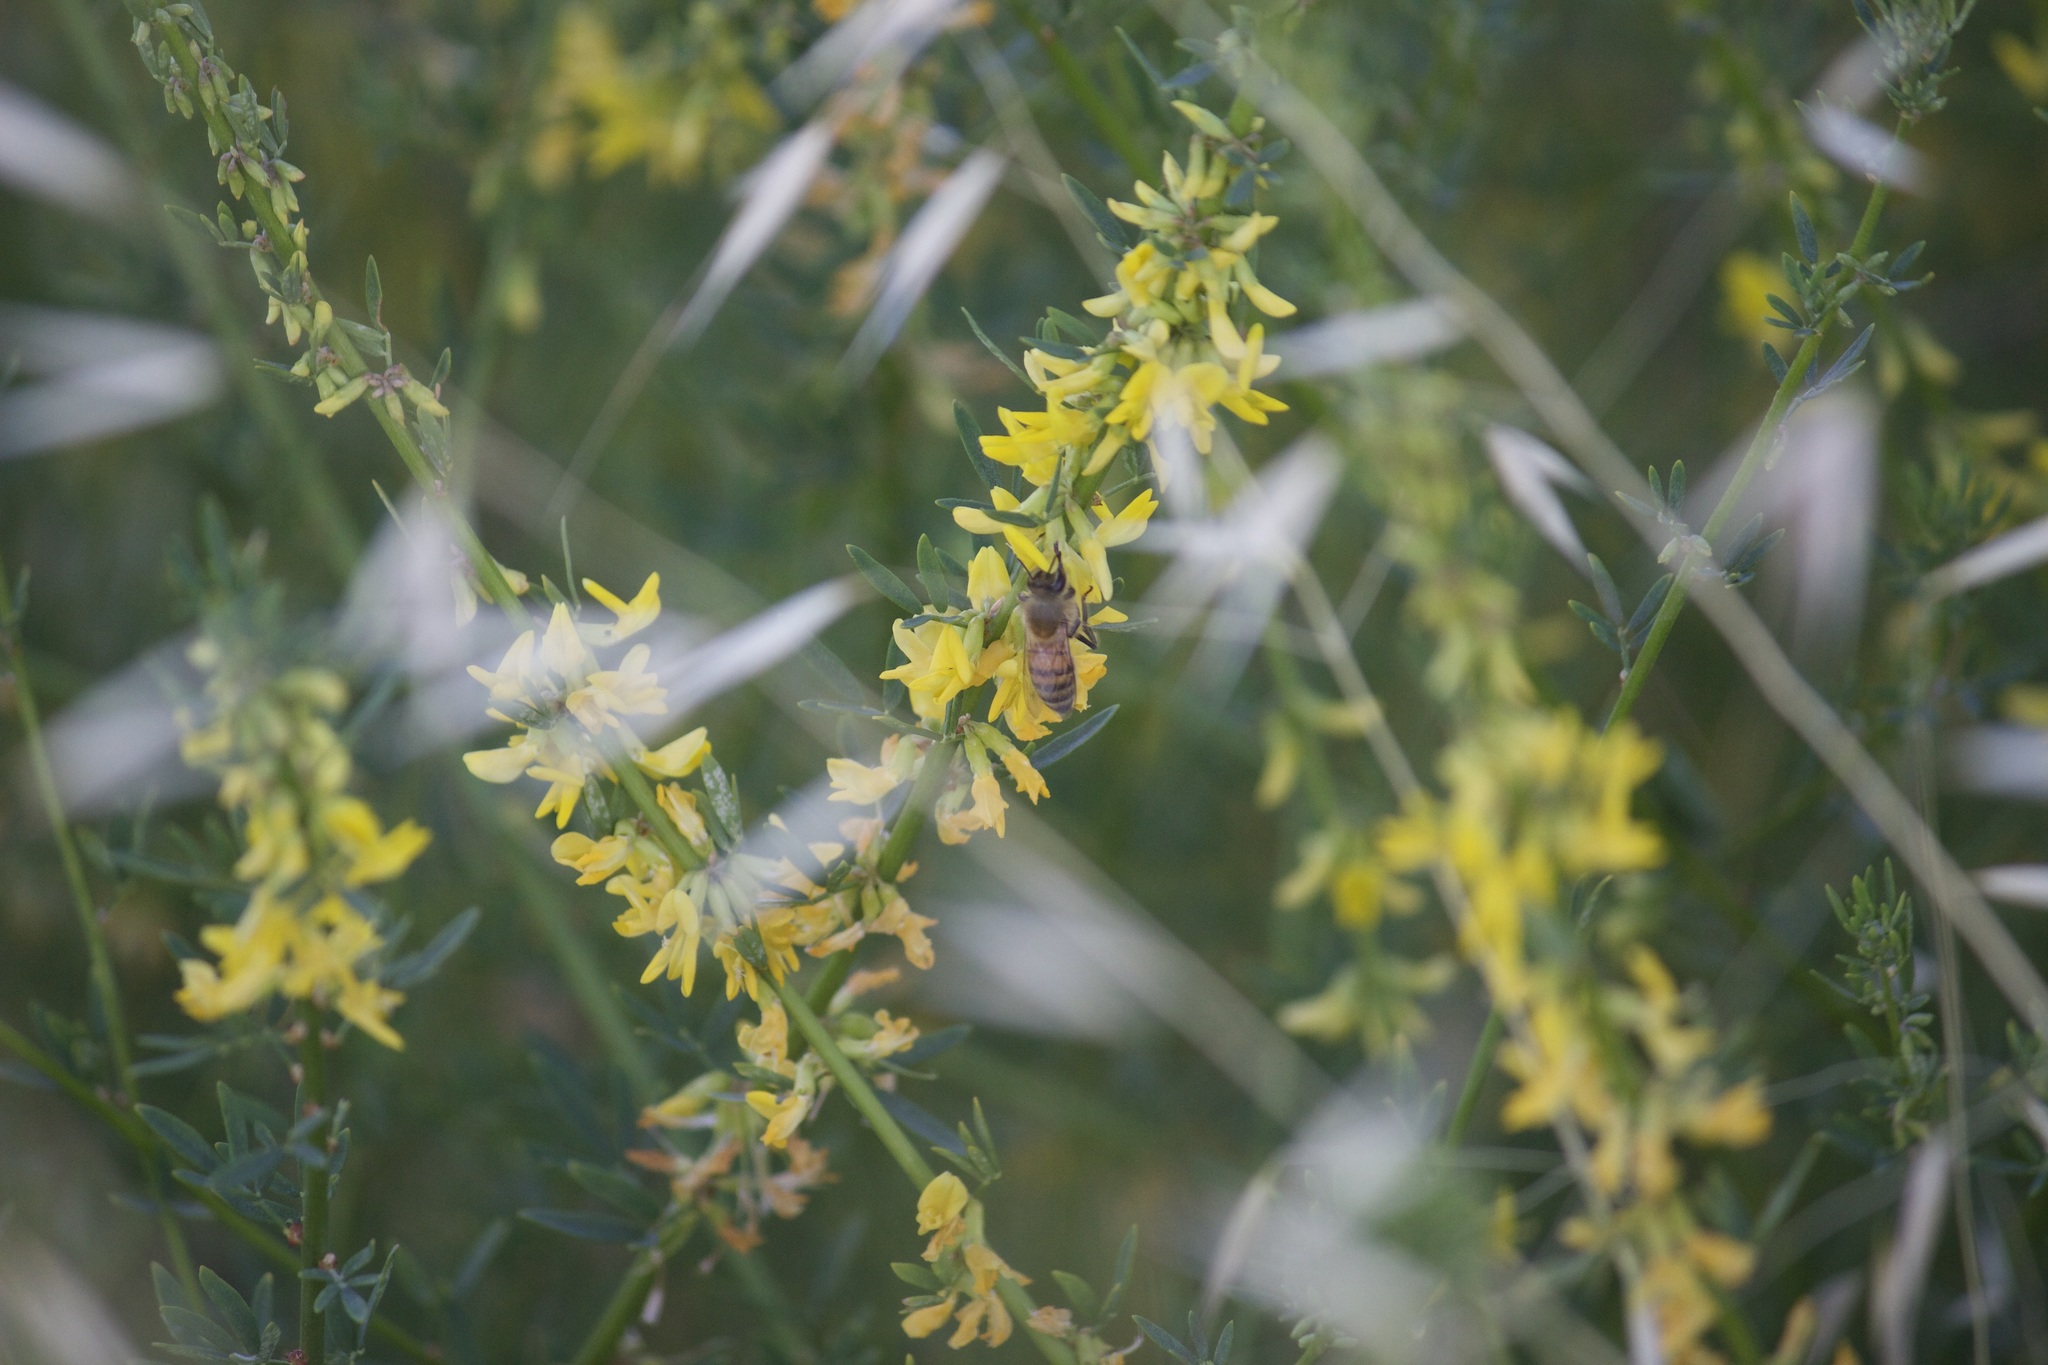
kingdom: Animalia
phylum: Arthropoda
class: Insecta
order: Hymenoptera
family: Apidae
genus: Apis
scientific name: Apis mellifera
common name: Honey bee
